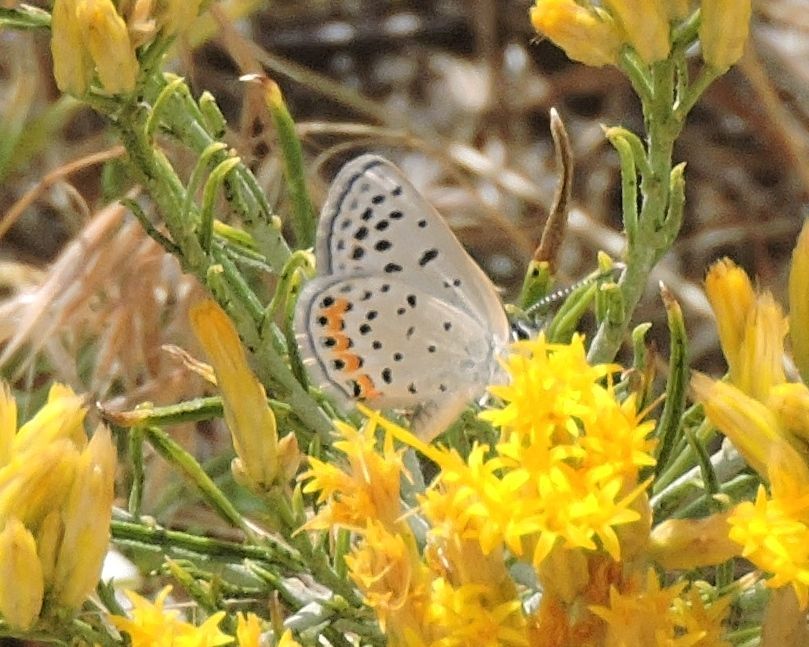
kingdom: Animalia
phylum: Arthropoda
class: Insecta
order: Lepidoptera
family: Lycaenidae
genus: Icaricia
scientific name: Icaricia acmon
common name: Acmon blue
